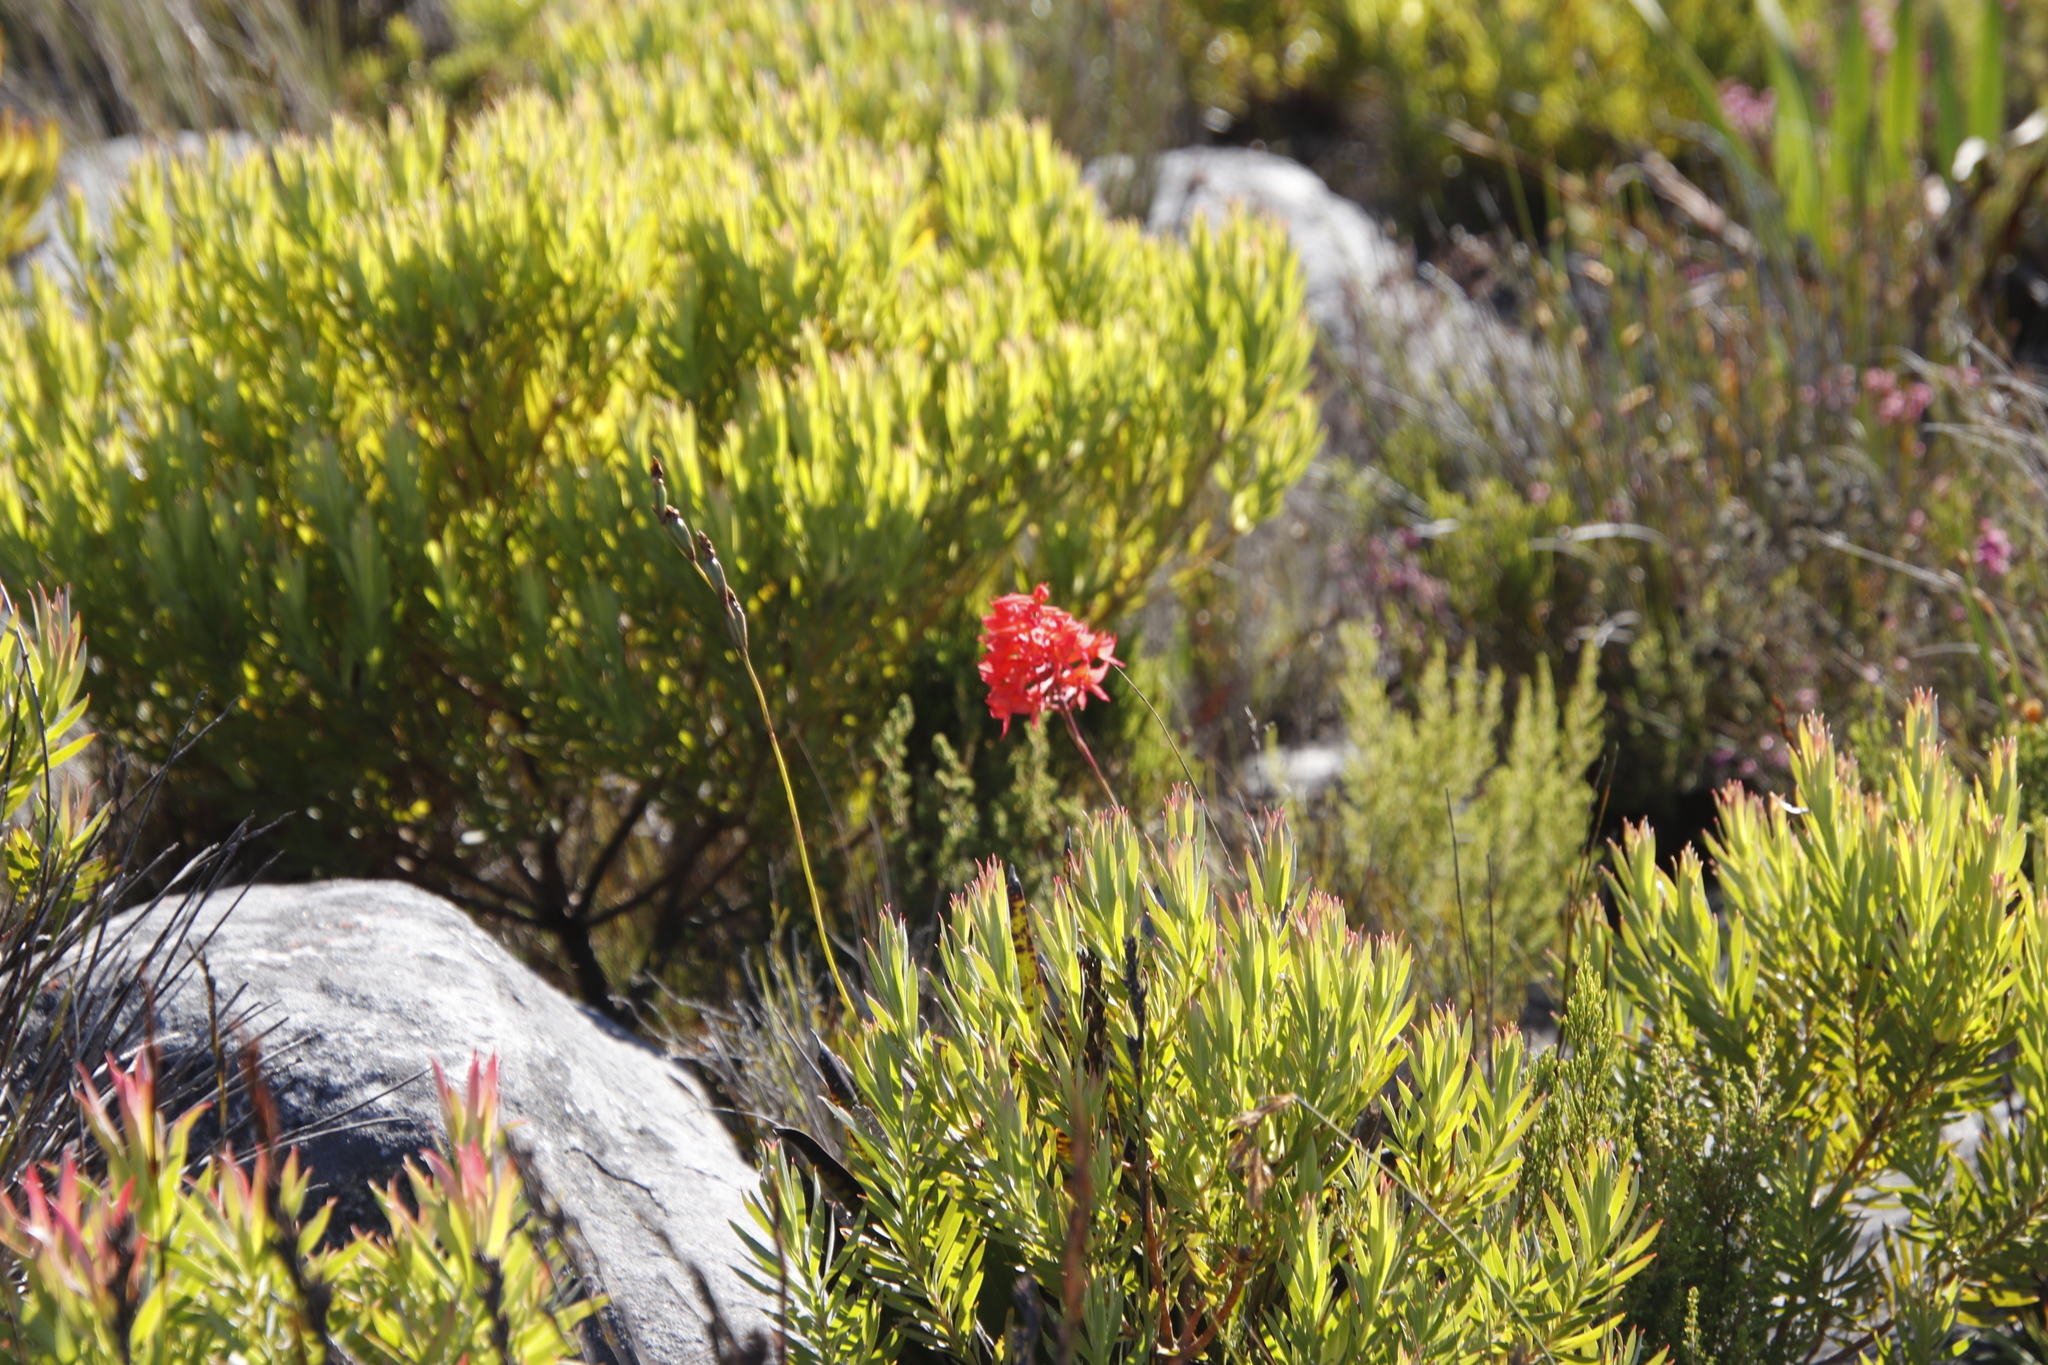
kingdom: Plantae
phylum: Tracheophyta
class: Magnoliopsida
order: Proteales
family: Proteaceae
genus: Leucadendron
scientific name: Leucadendron xanthoconus
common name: Sickle-leaf conebush
